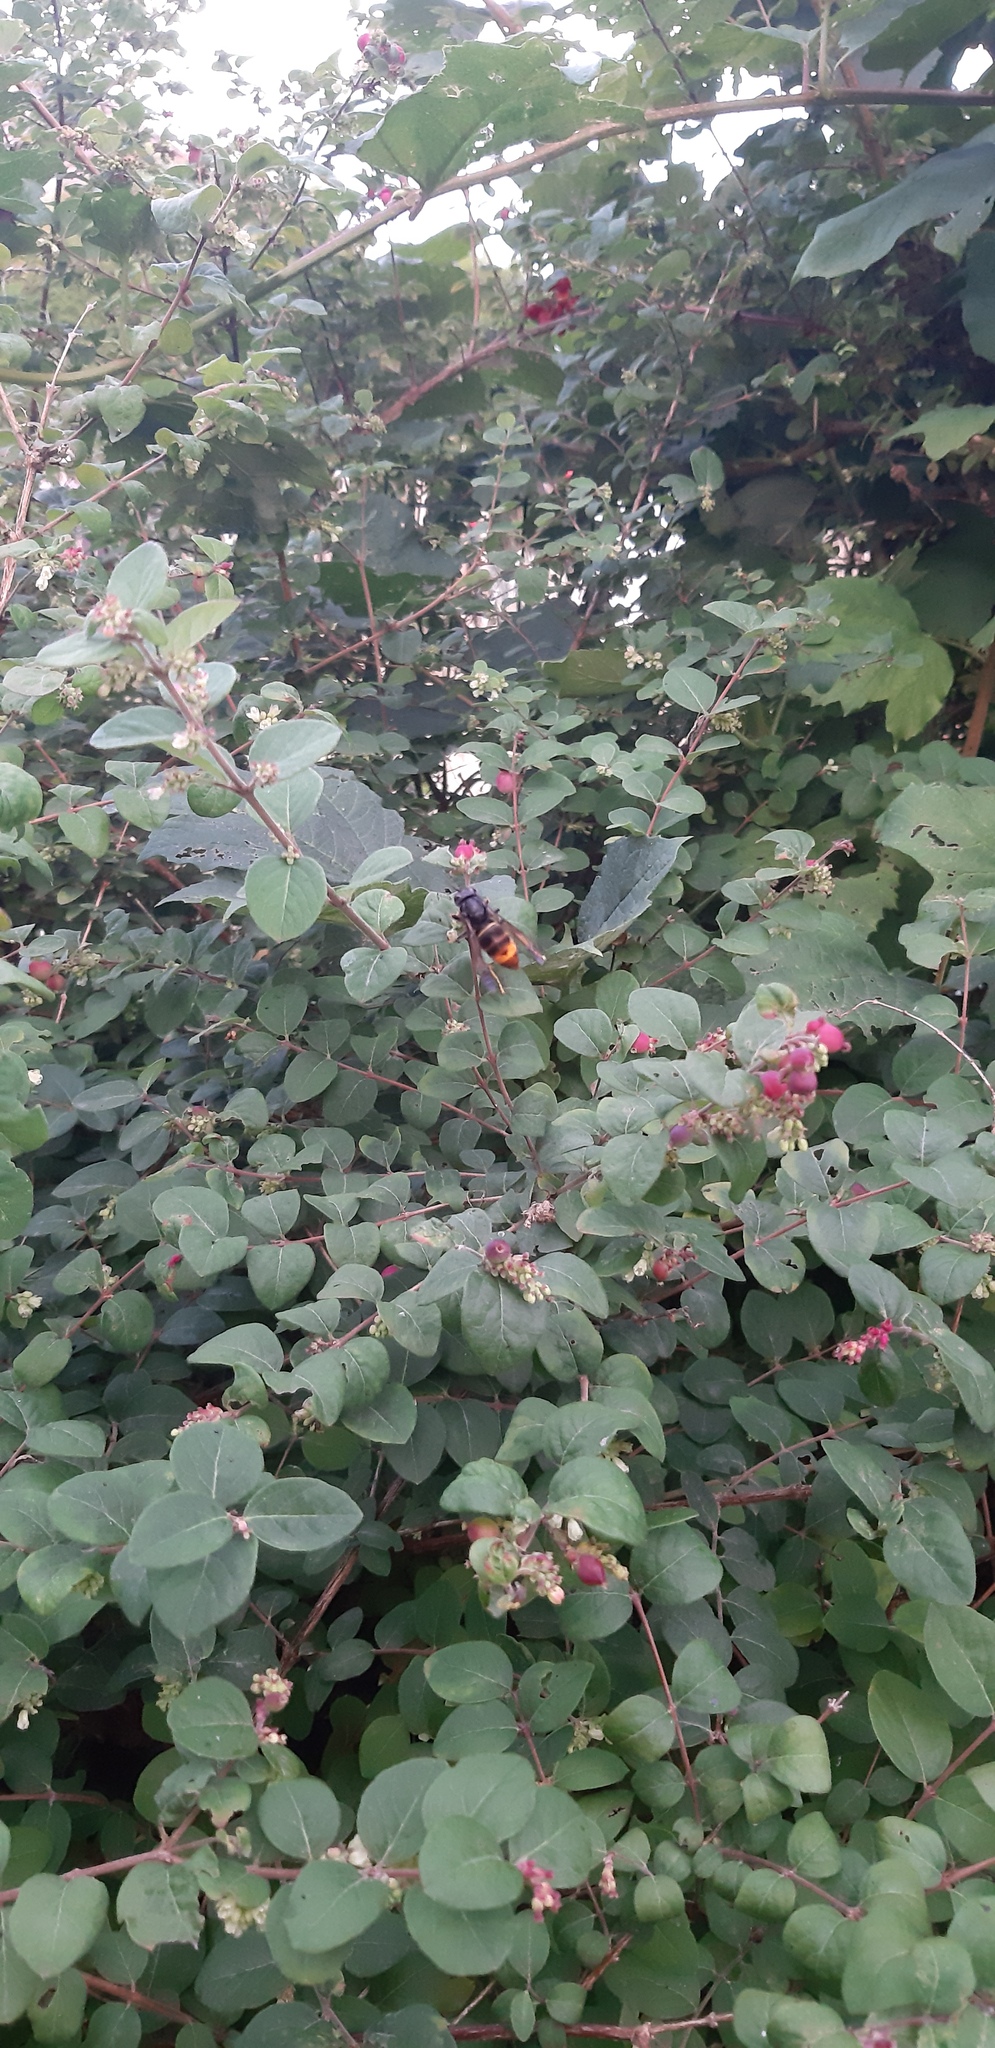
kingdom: Animalia
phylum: Arthropoda
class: Insecta
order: Hymenoptera
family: Vespidae
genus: Vespa
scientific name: Vespa velutina
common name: Asian hornet
